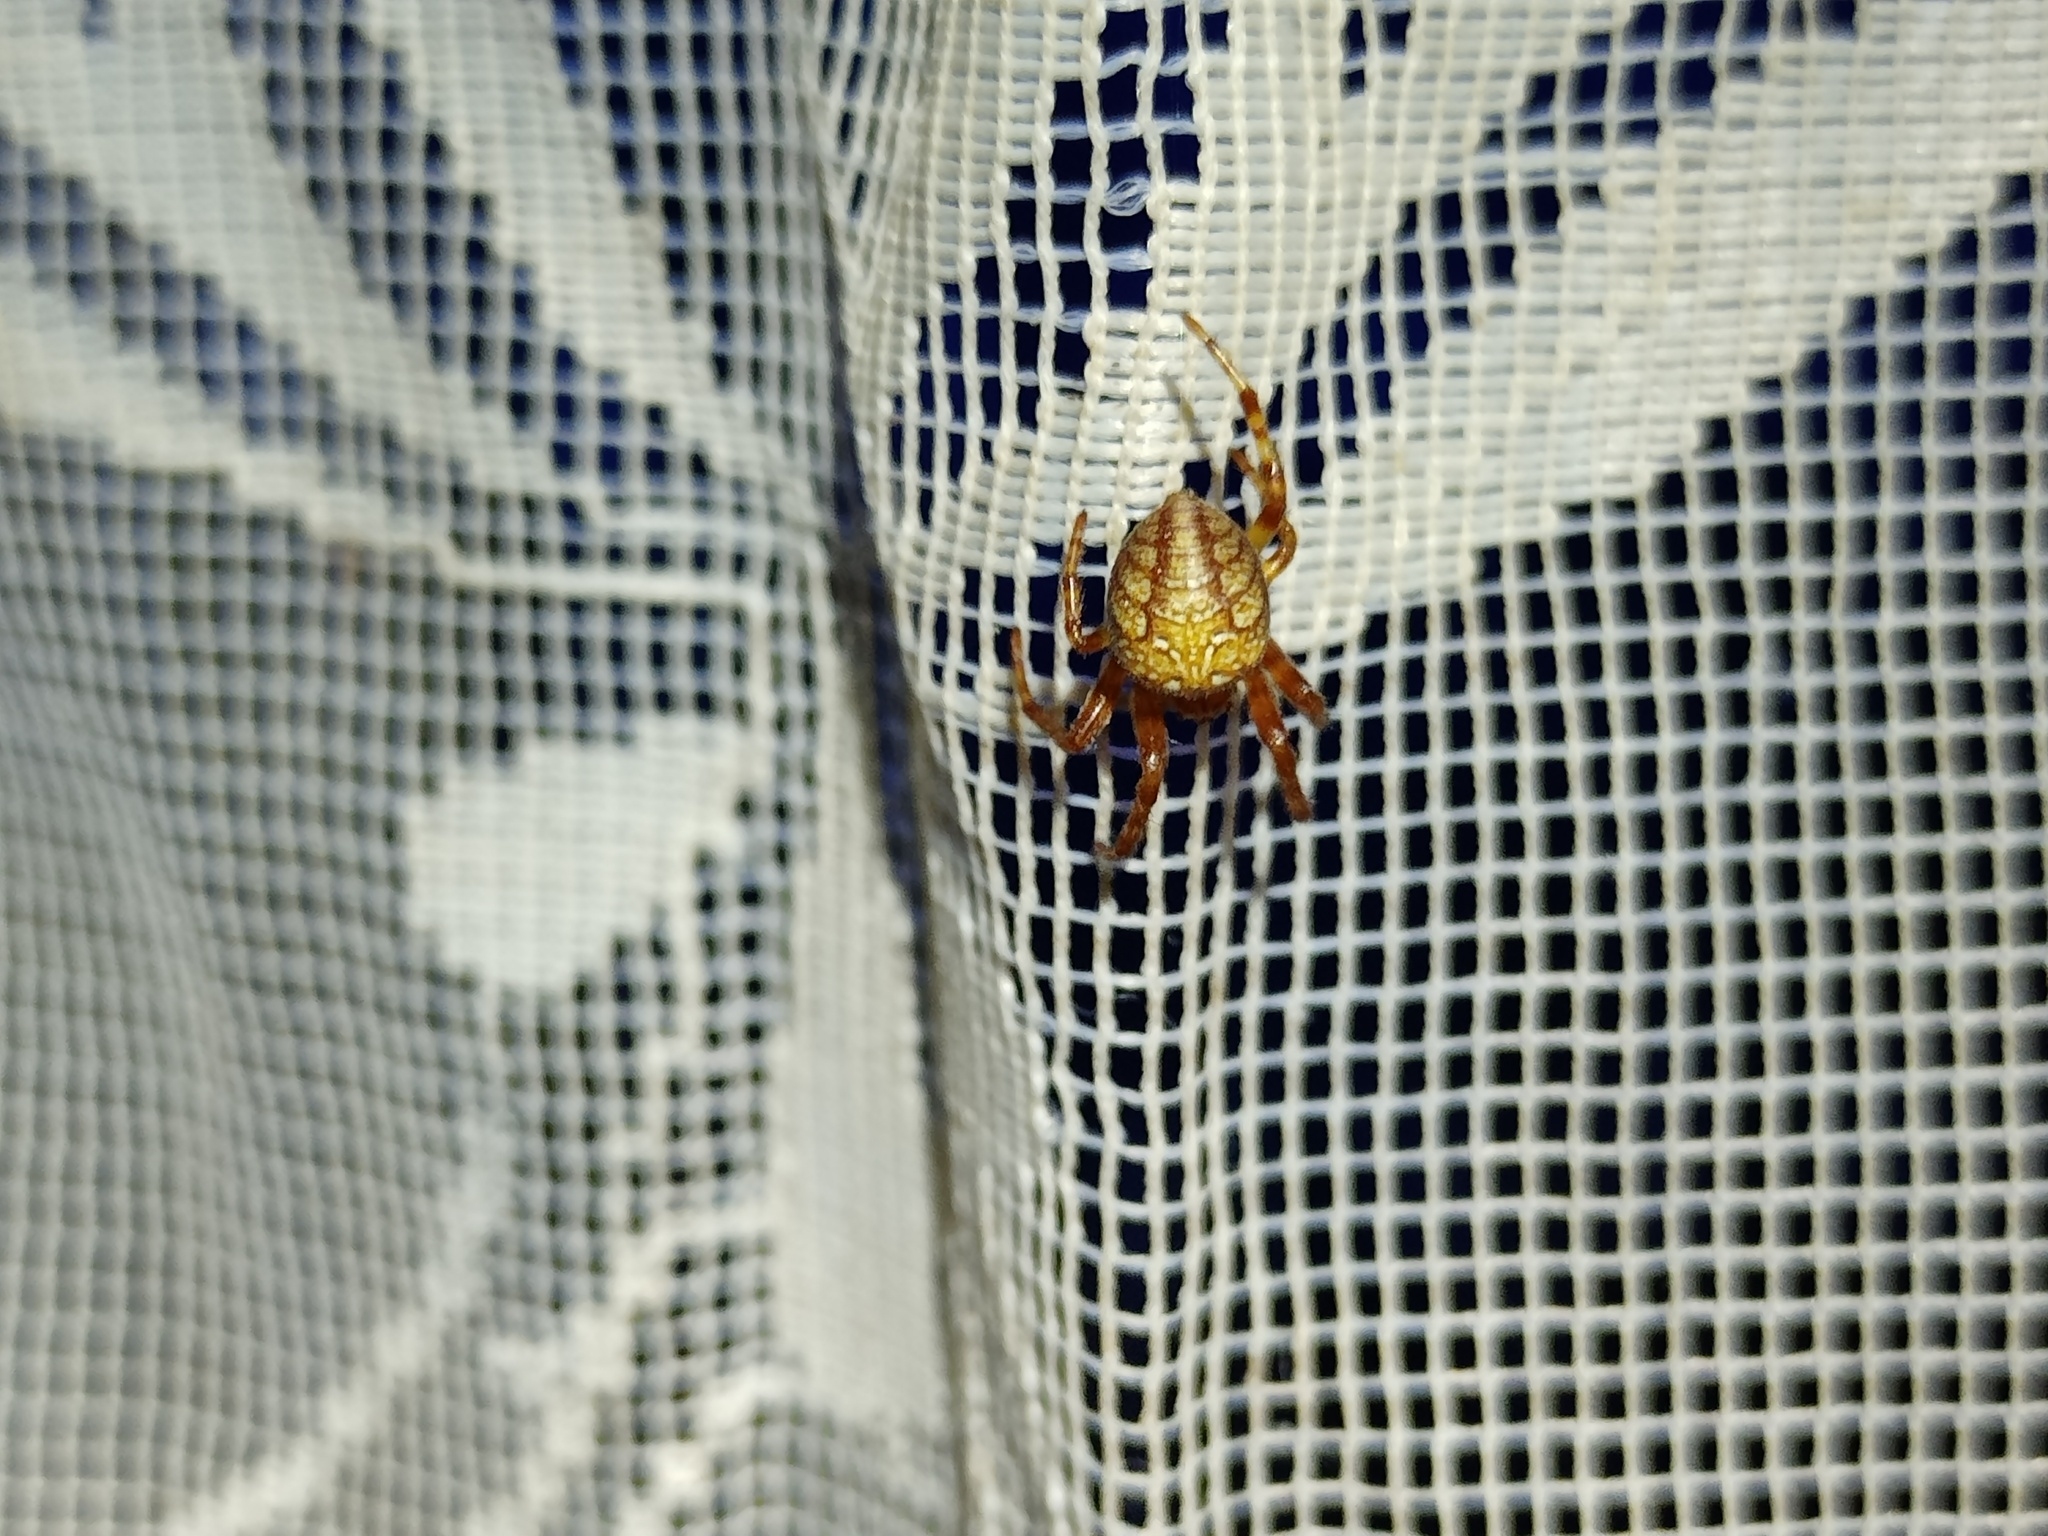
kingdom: Animalia
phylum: Arthropoda
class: Arachnida
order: Araneae
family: Araneidae
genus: Araneus
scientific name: Araneus alsine
